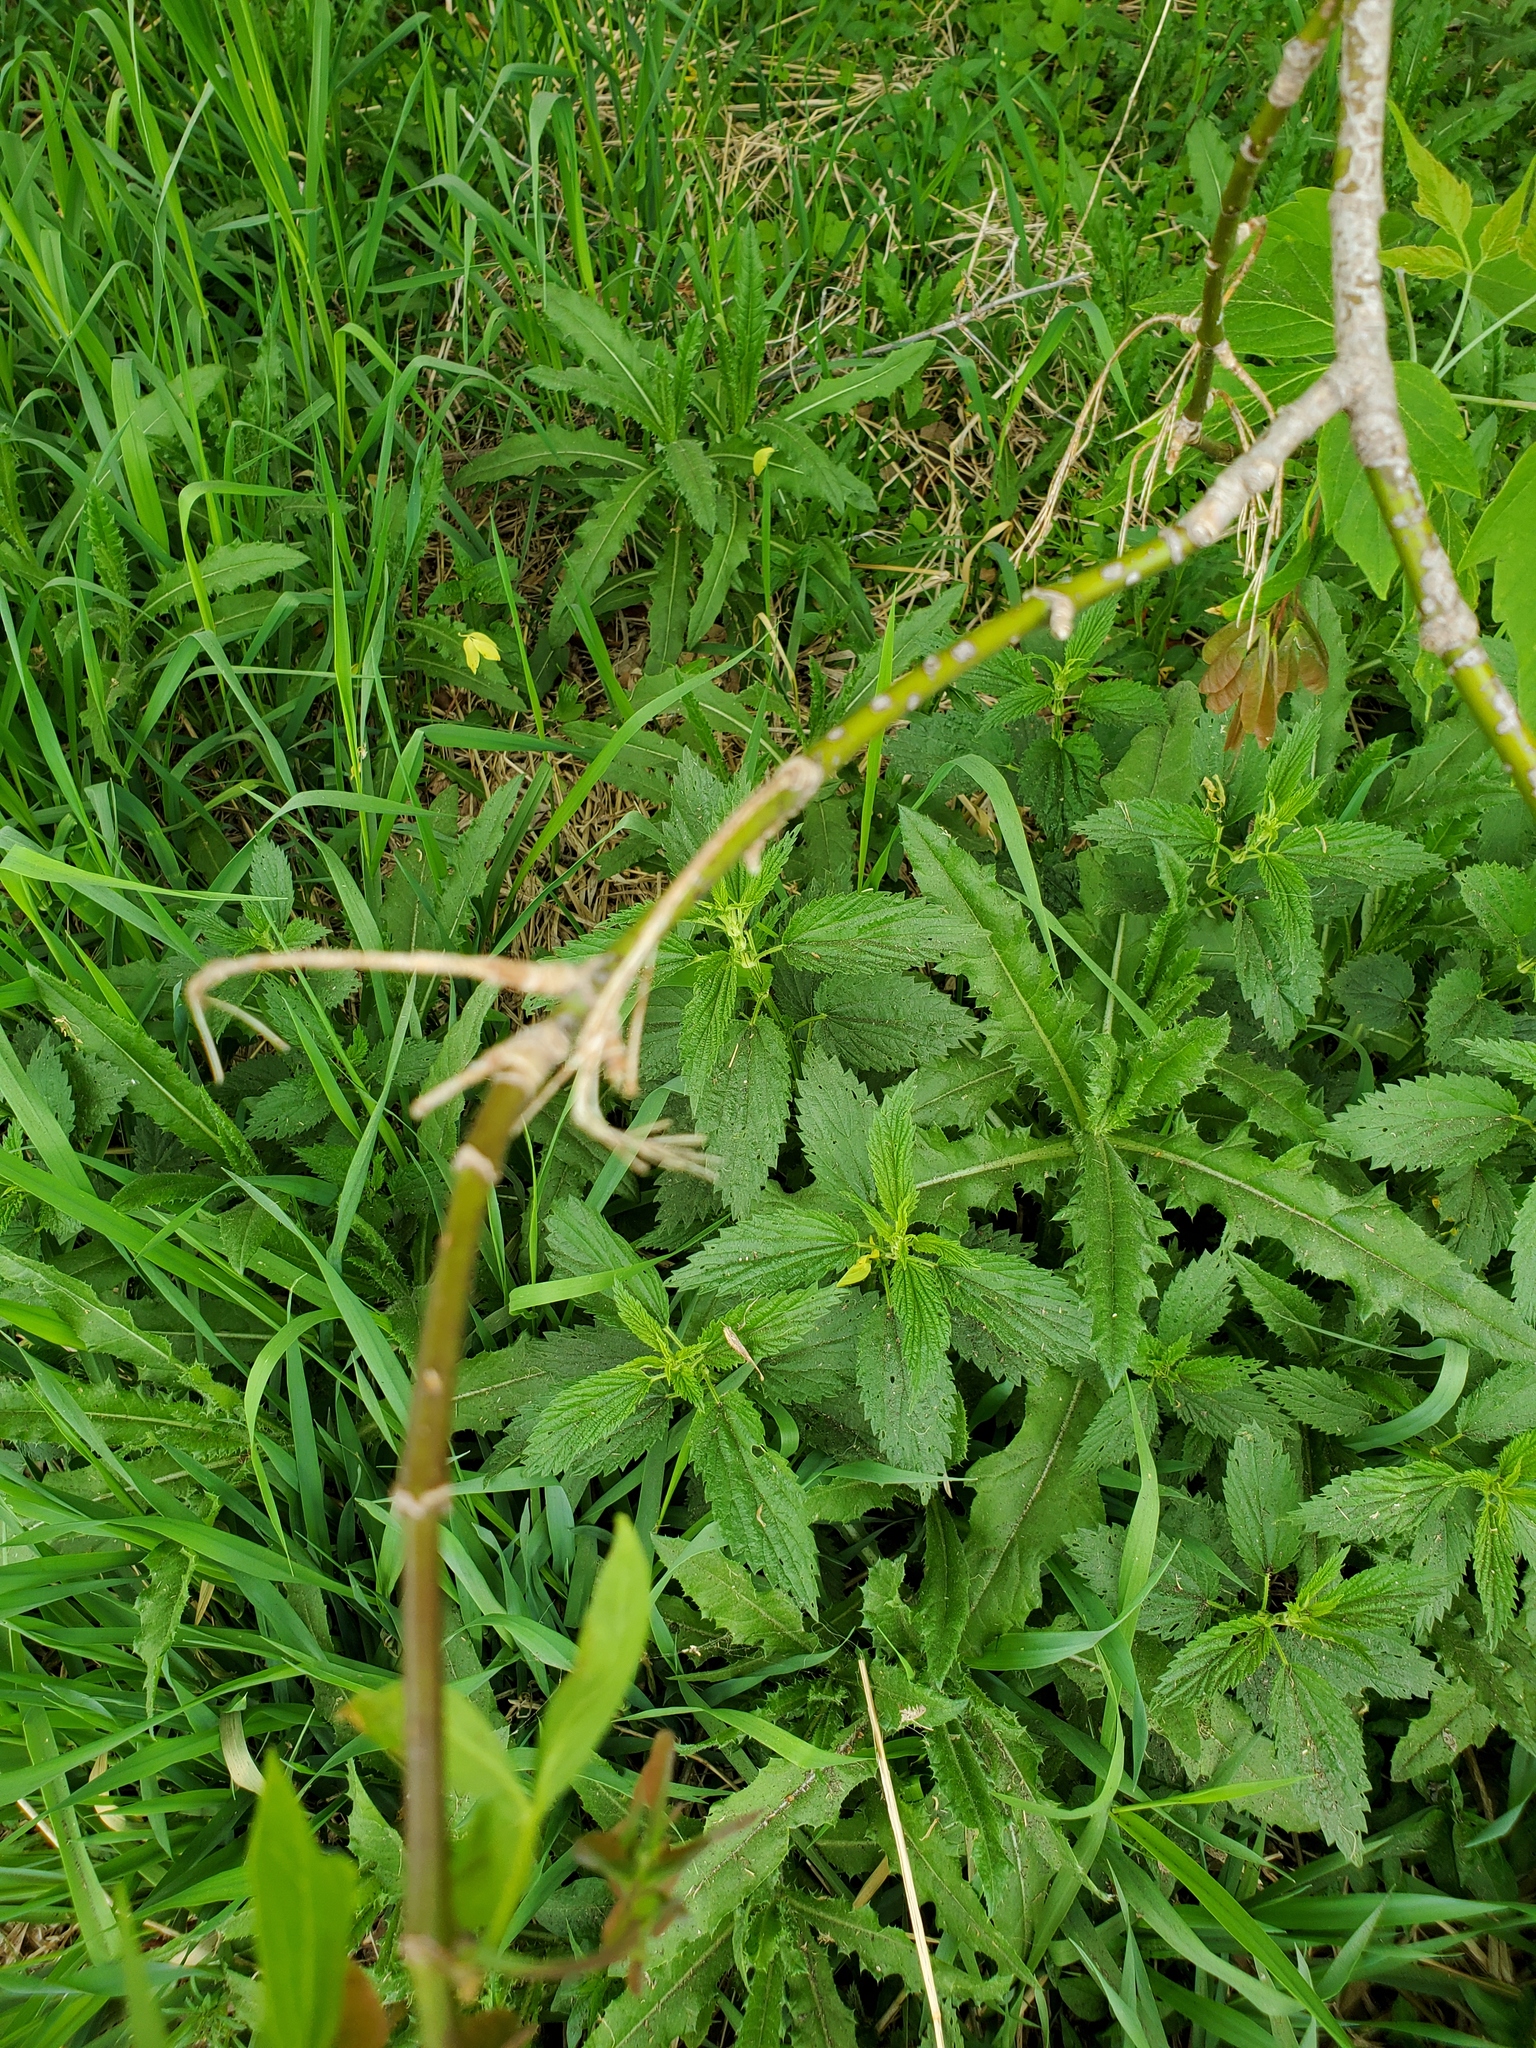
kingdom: Plantae
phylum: Tracheophyta
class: Magnoliopsida
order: Sapindales
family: Sapindaceae
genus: Acer
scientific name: Acer negundo
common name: Ashleaf maple
